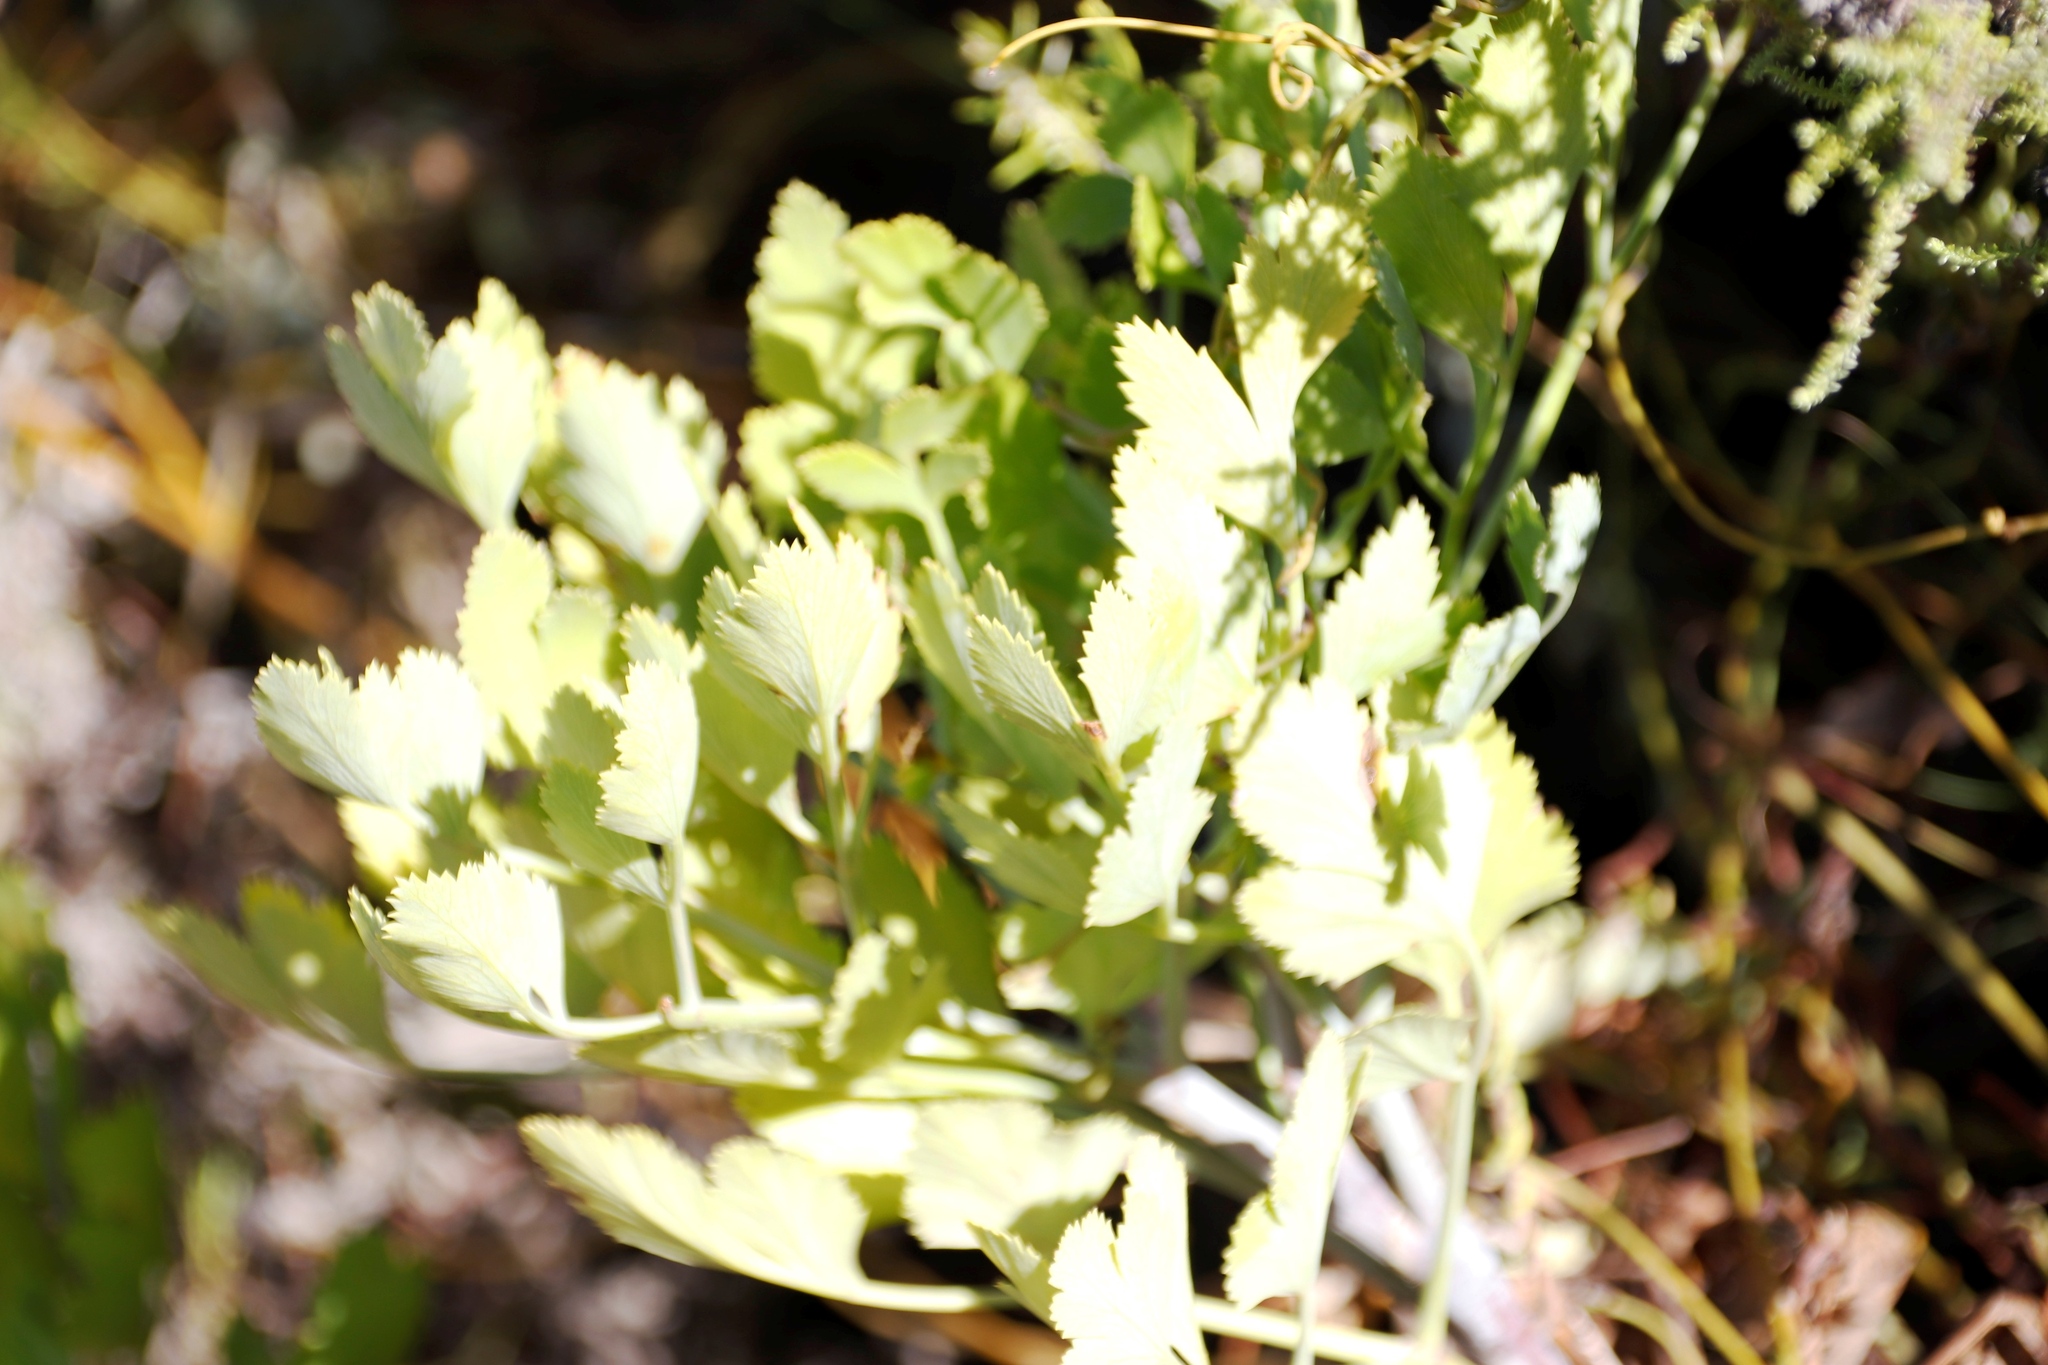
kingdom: Plantae
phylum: Tracheophyta
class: Magnoliopsida
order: Apiales
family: Apiaceae
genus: Notobubon
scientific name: Notobubon galbanum
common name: Blisterbush
